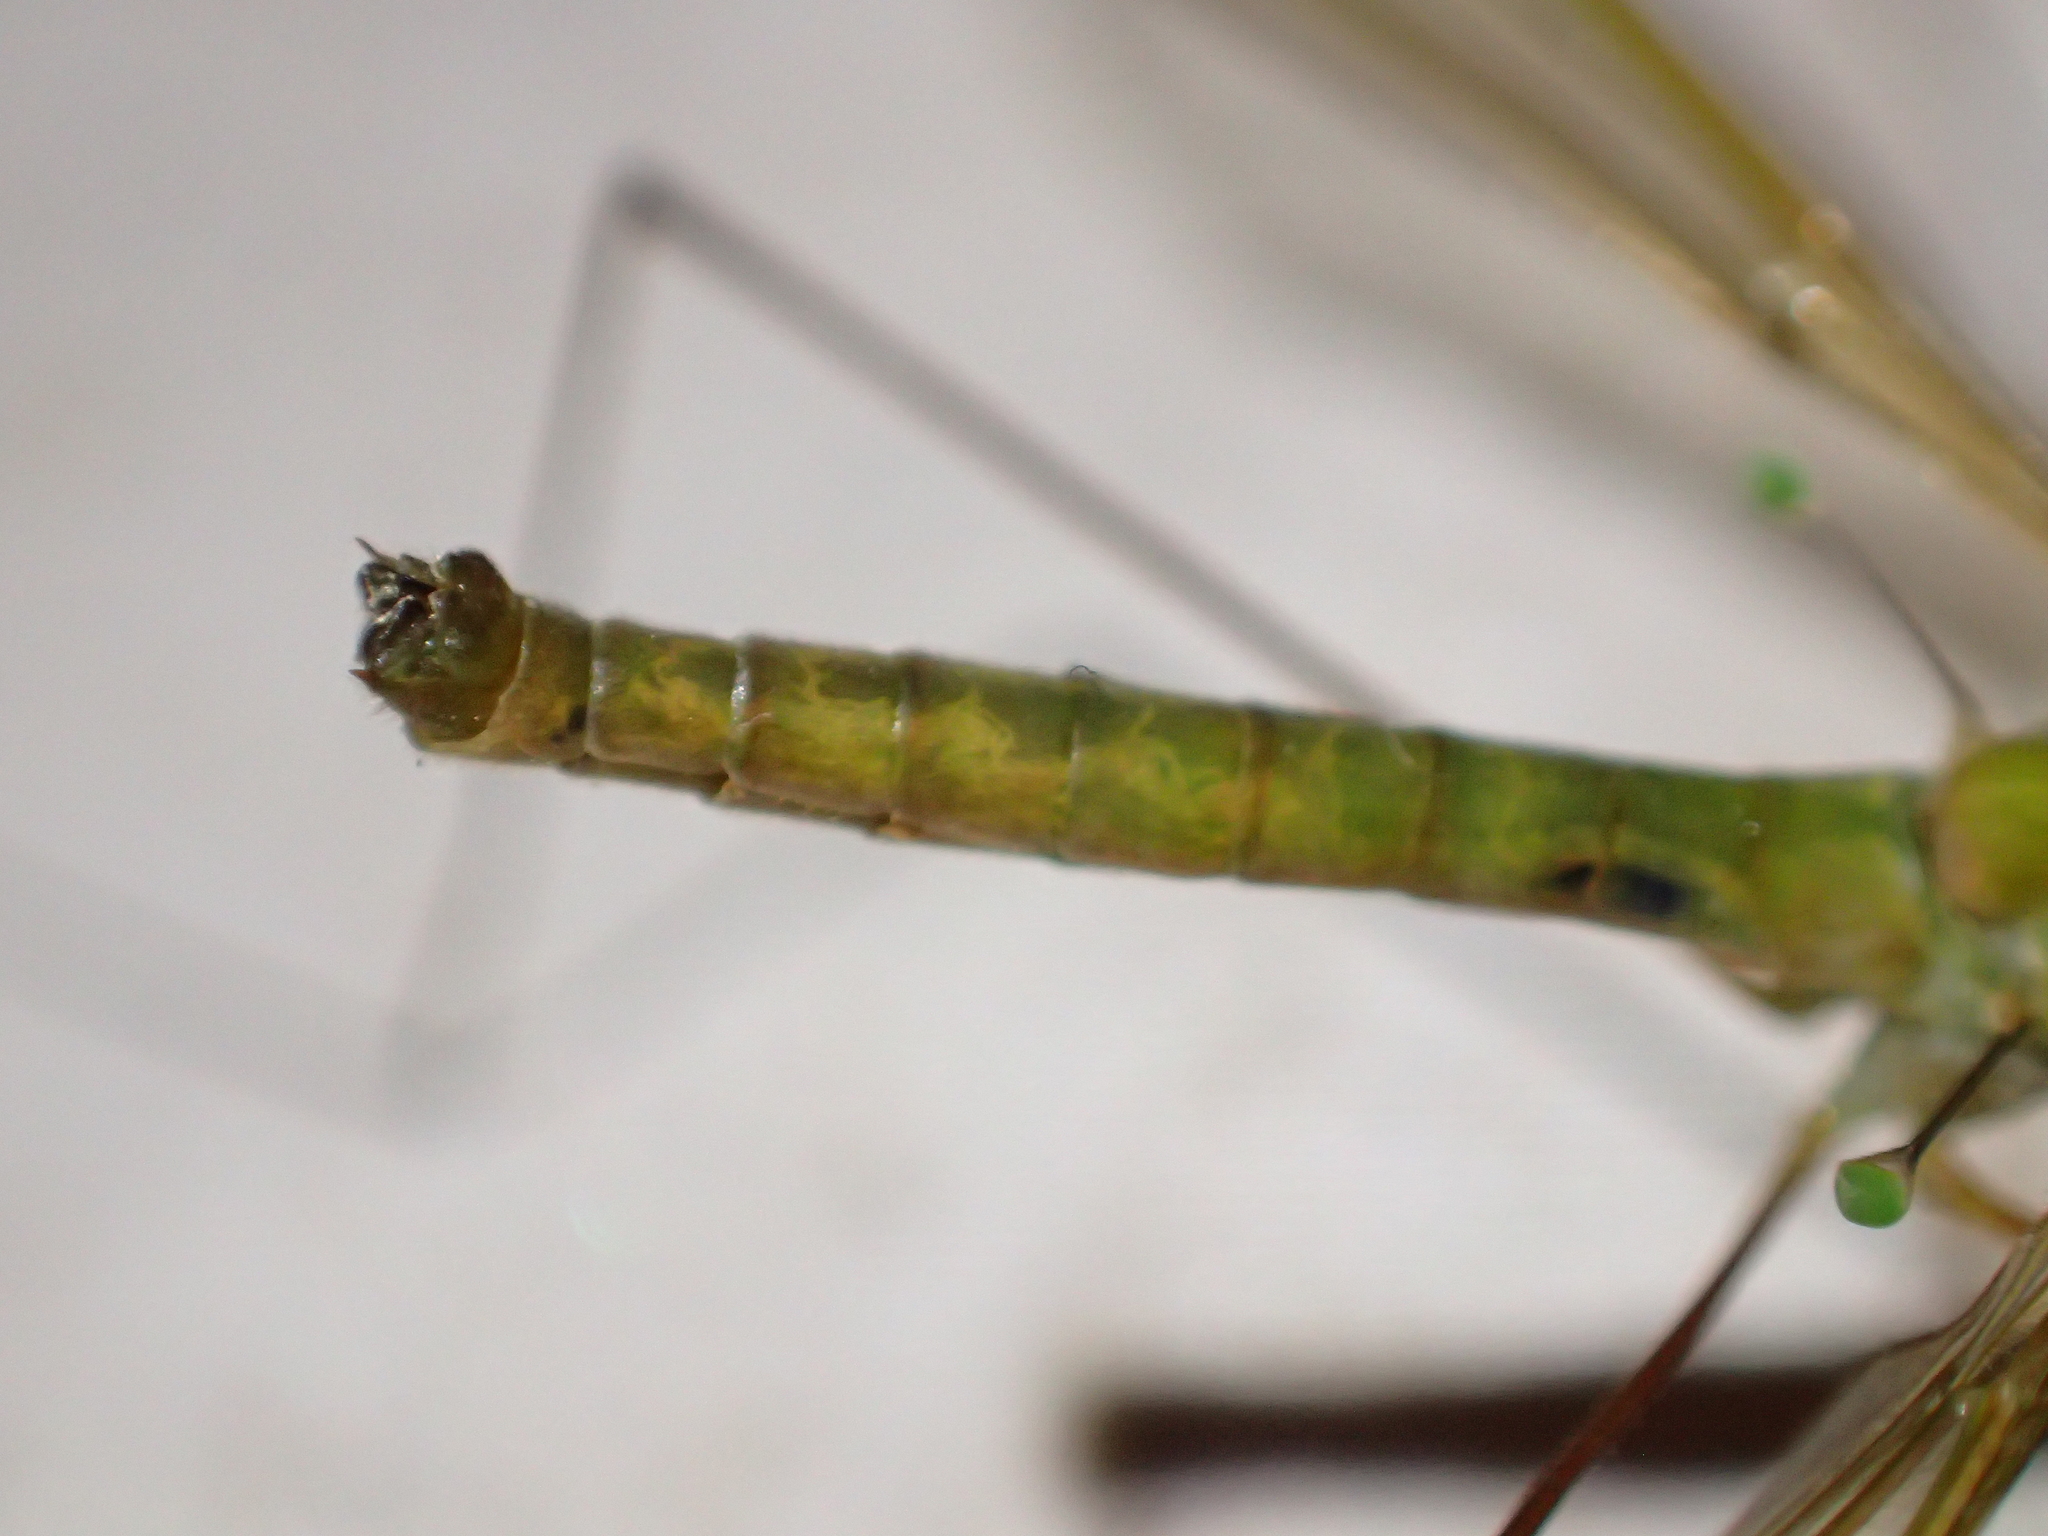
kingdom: Animalia
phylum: Arthropoda
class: Insecta
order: Diptera
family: Tipulidae
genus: Leptotarsus
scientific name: Leptotarsus viridis
